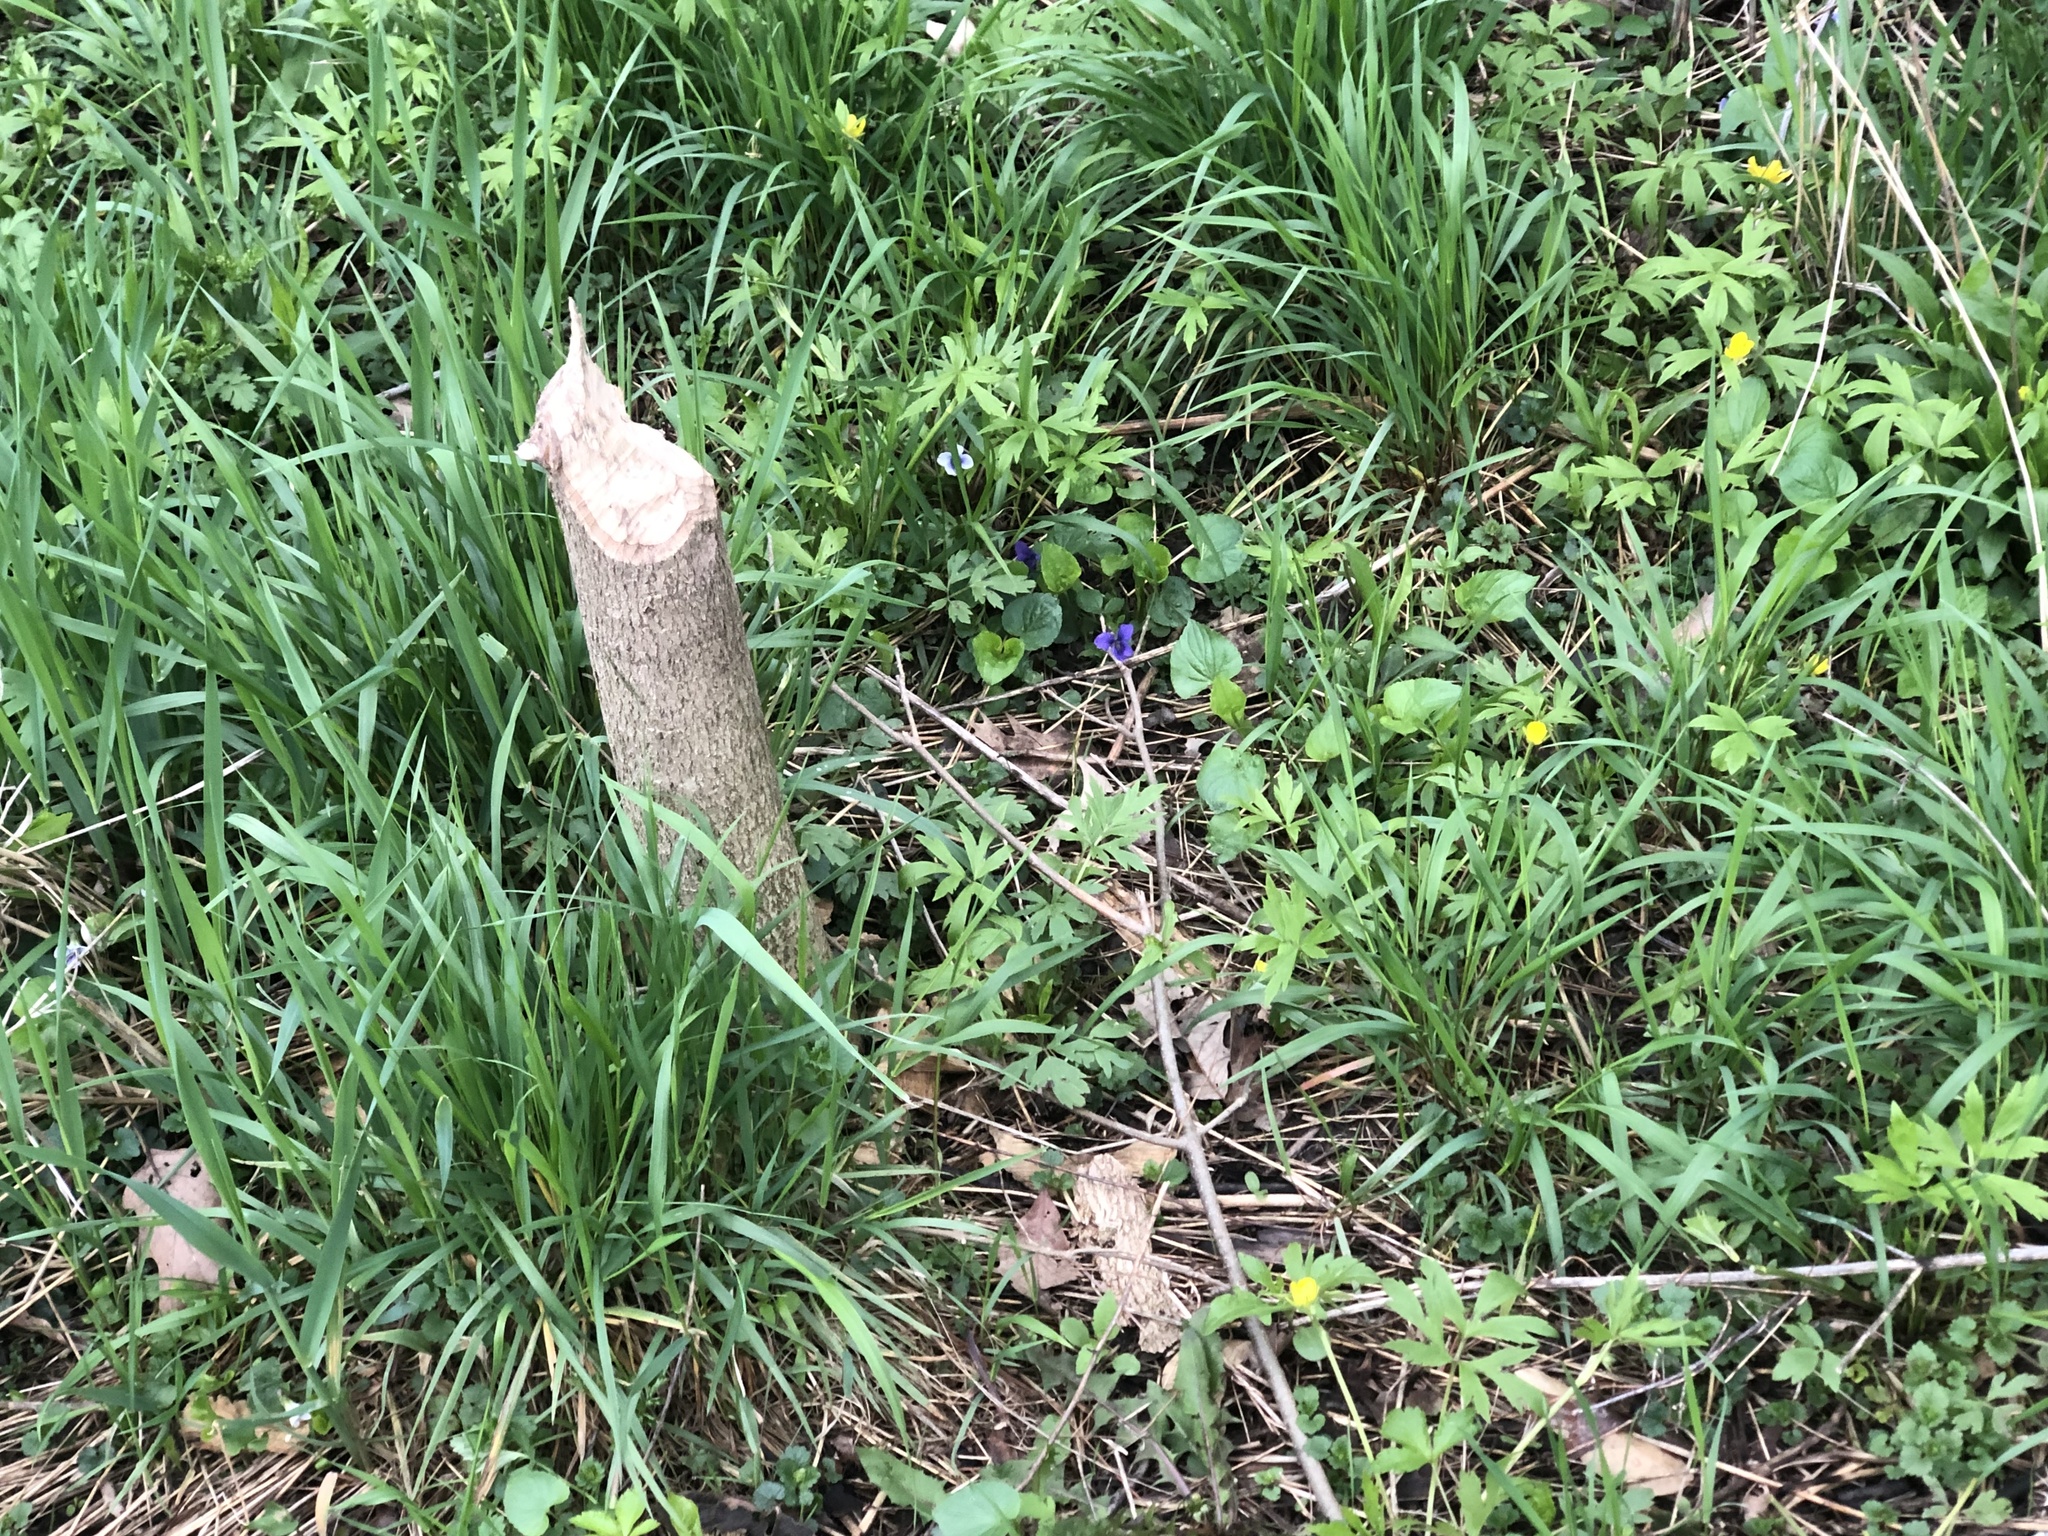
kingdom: Animalia
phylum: Chordata
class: Mammalia
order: Rodentia
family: Castoridae
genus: Castor
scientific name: Castor canadensis
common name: American beaver
